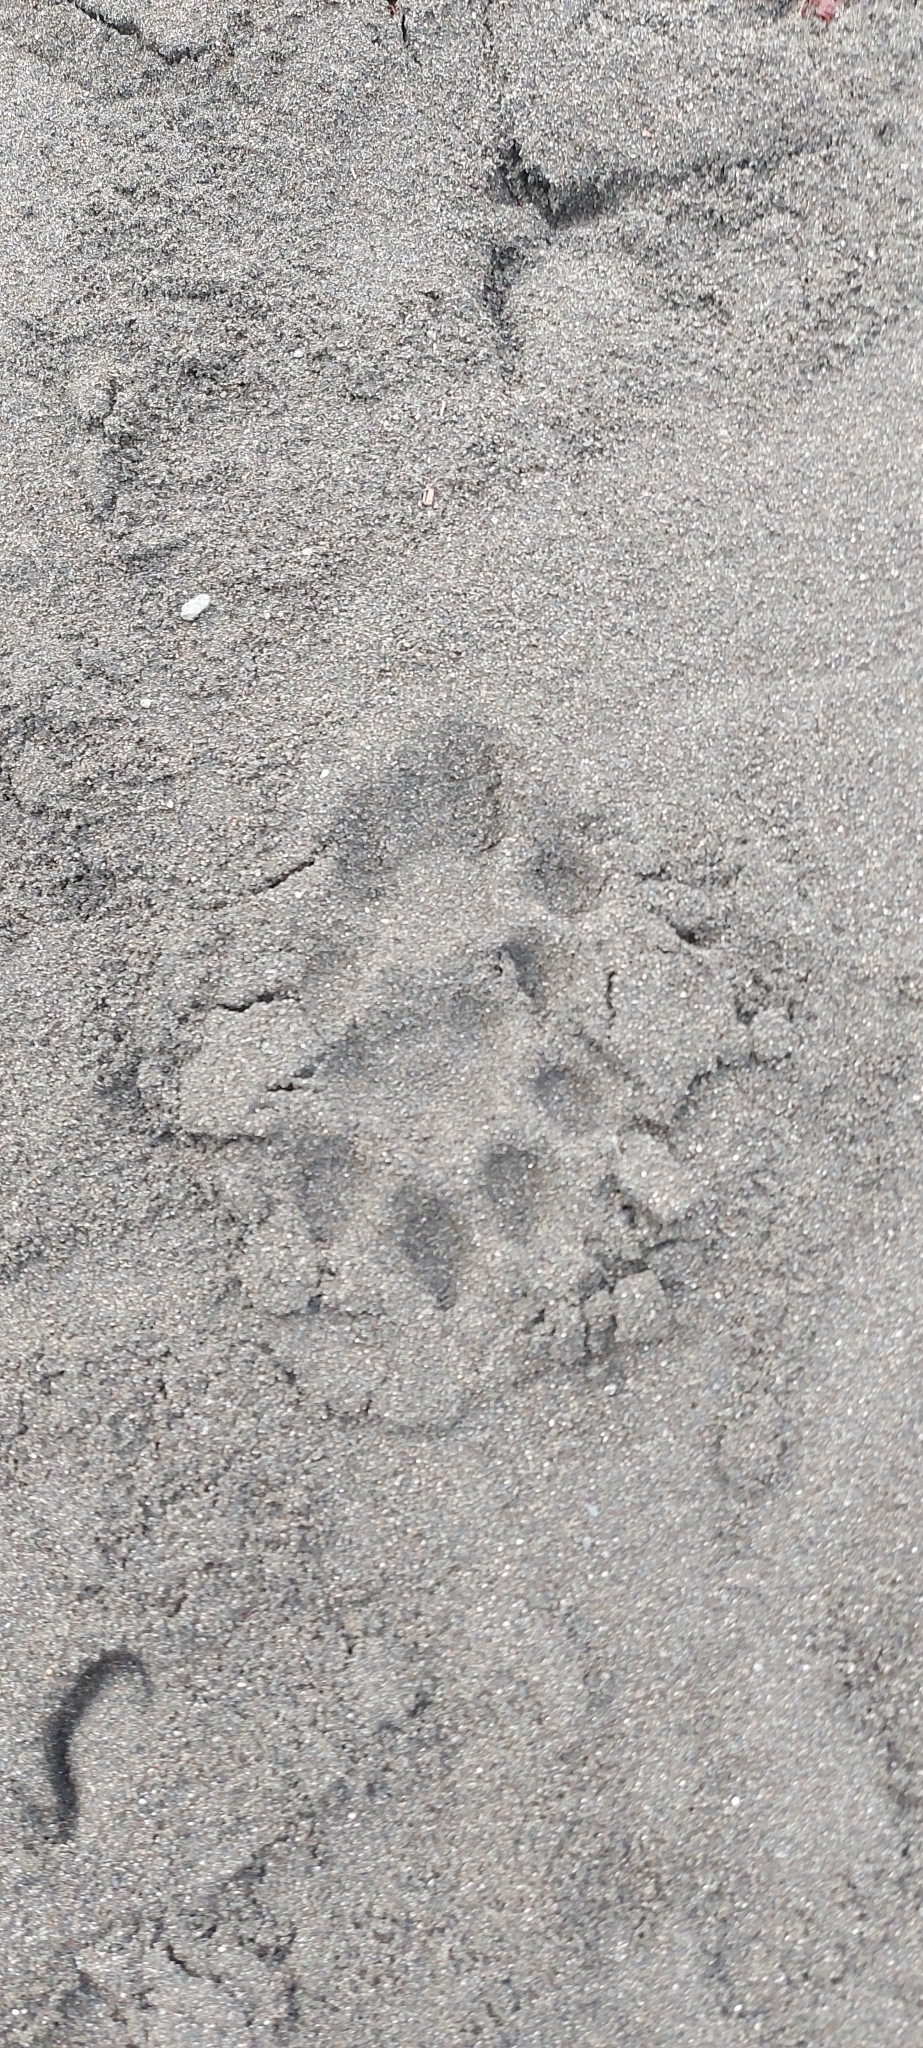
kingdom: Animalia
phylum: Chordata
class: Mammalia
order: Carnivora
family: Felidae
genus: Leopardus
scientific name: Leopardus pardalis
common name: Ocelot
